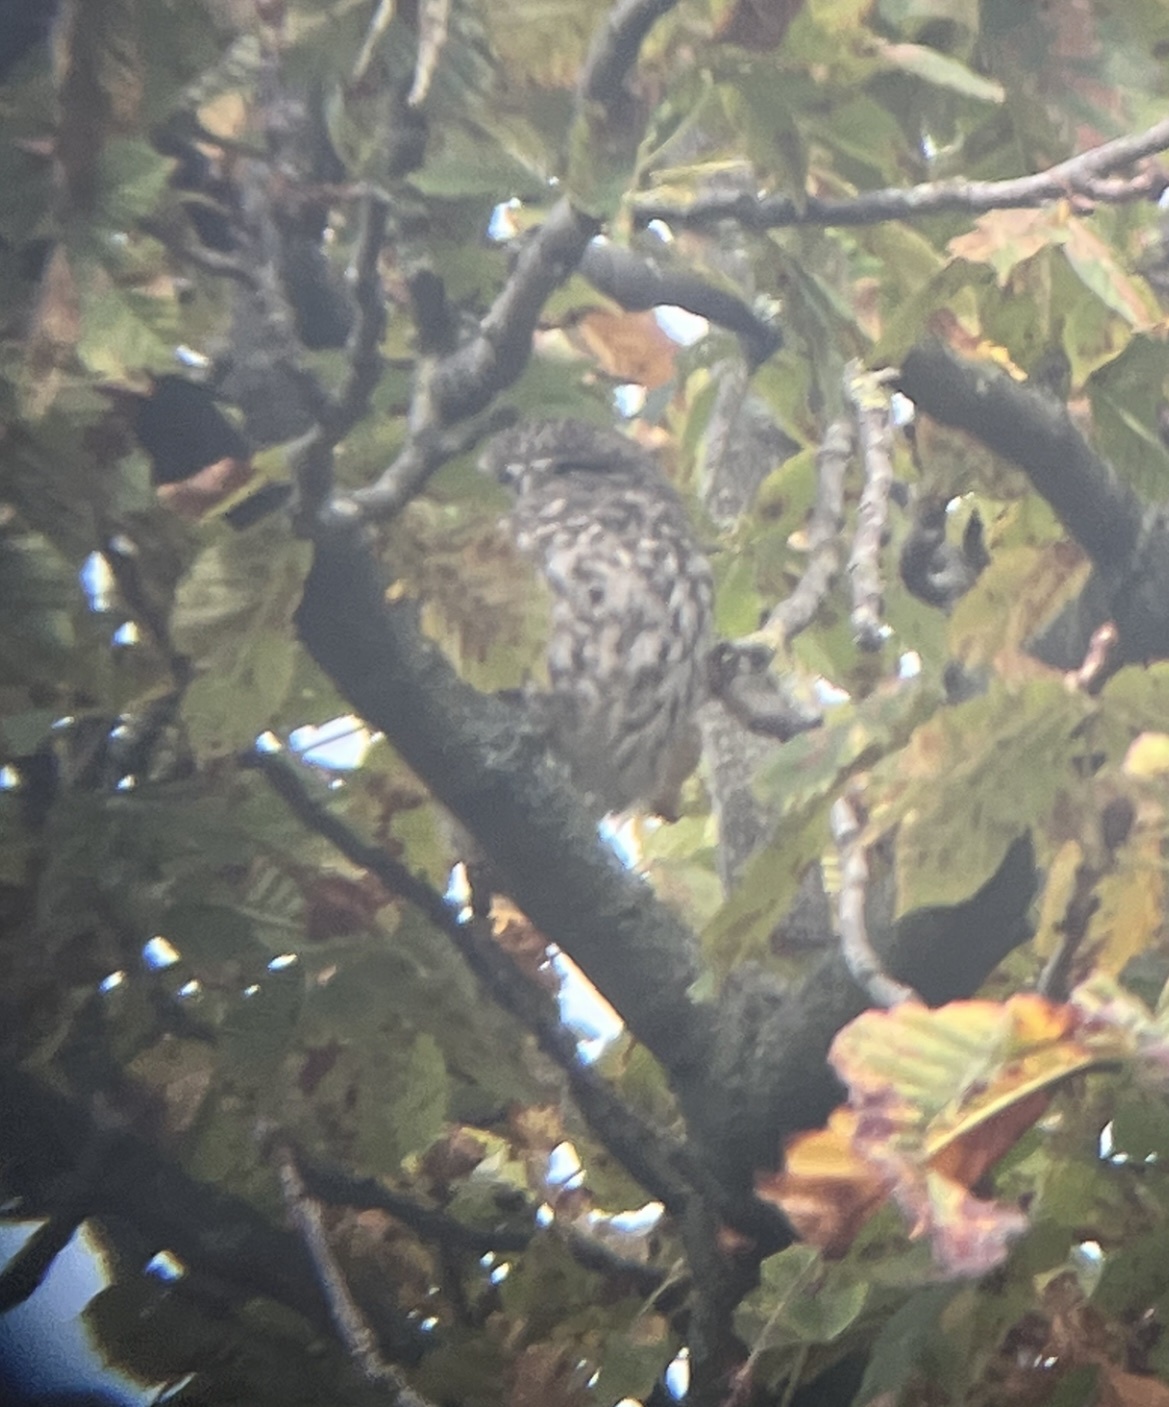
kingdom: Animalia
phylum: Chordata
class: Aves
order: Strigiformes
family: Strigidae
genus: Athene
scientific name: Athene noctua
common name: Little owl
